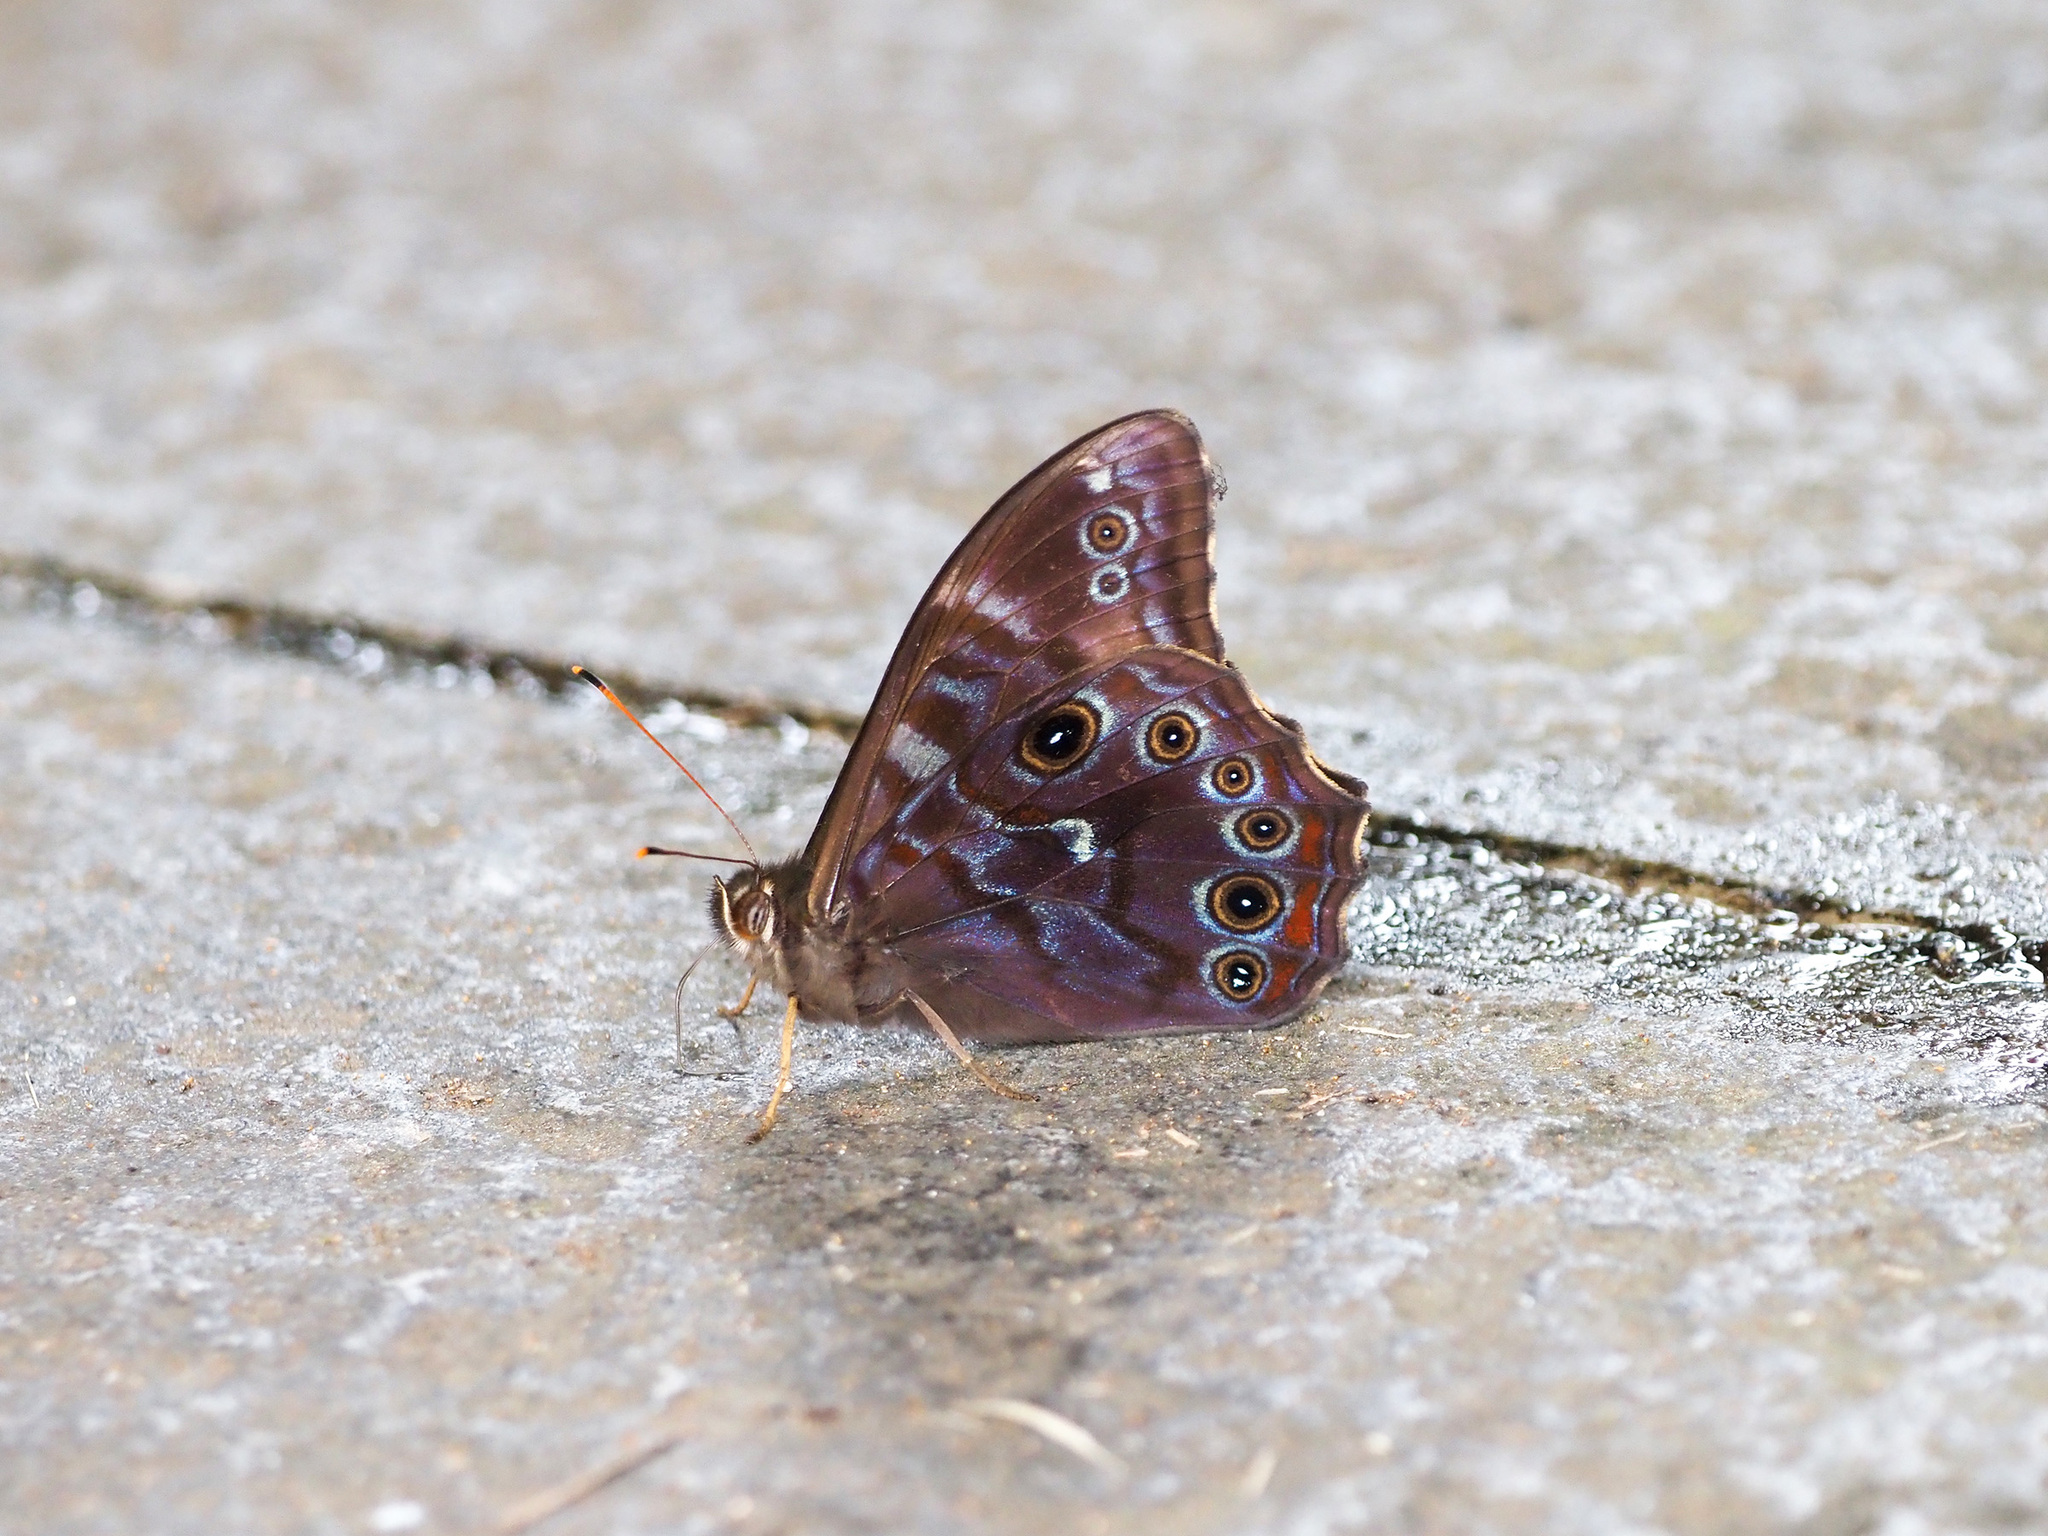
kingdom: Animalia
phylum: Arthropoda
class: Insecta
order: Lepidoptera
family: Nymphalidae
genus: Lethe
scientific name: Lethe perimede
